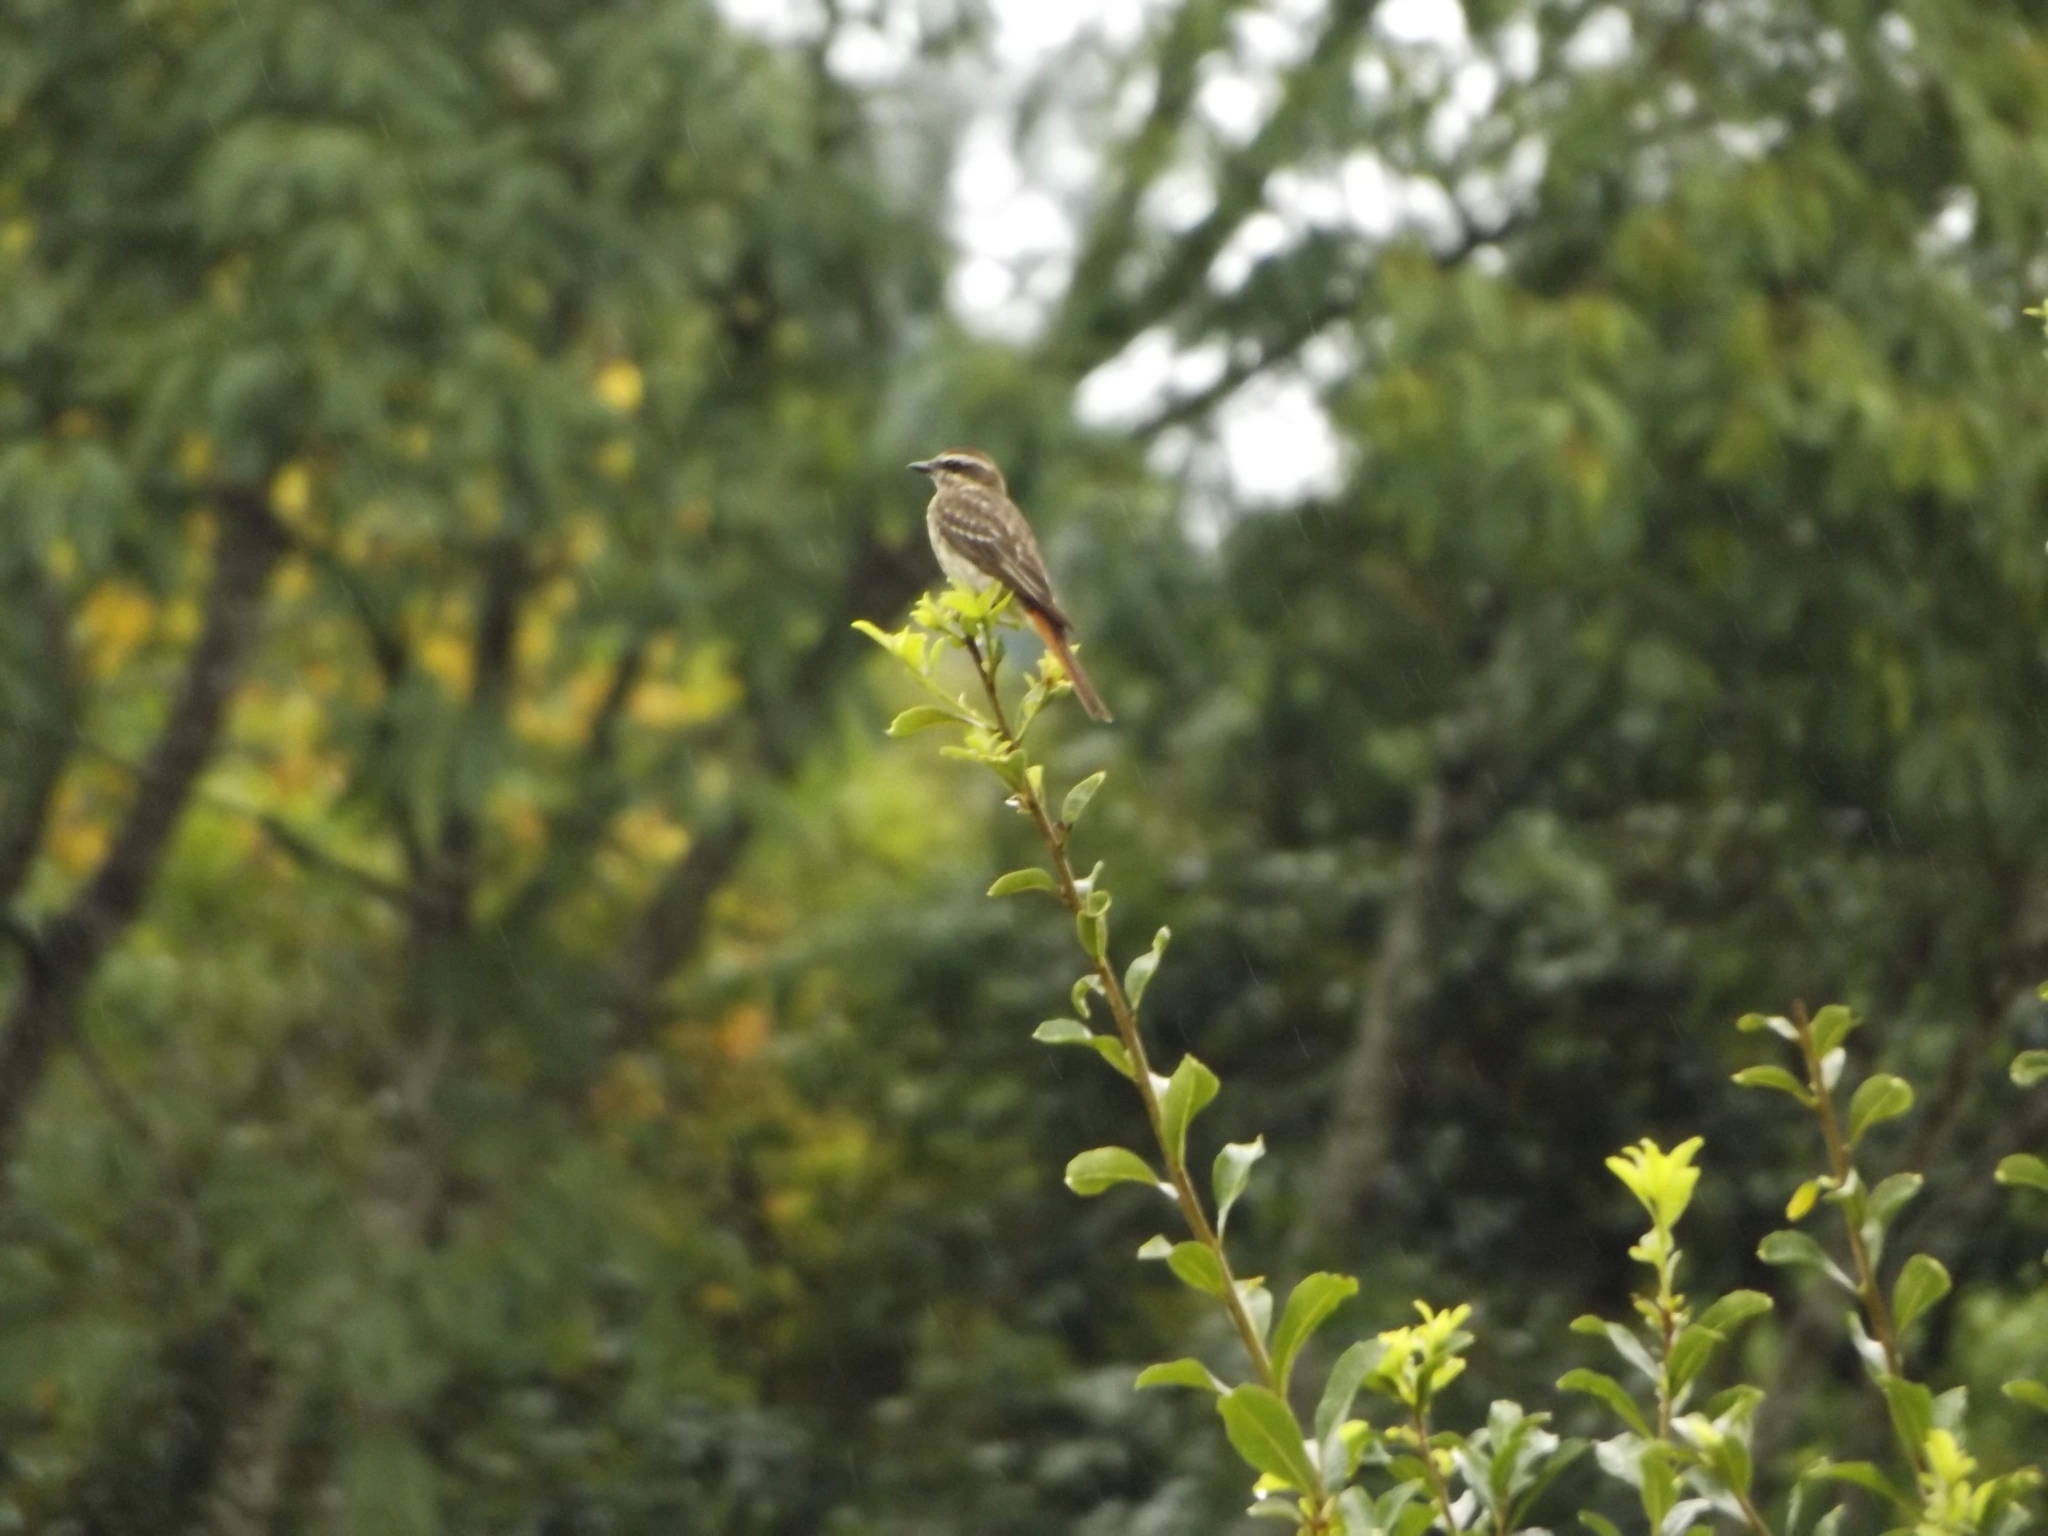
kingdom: Animalia
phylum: Chordata
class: Aves
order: Passeriformes
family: Tyrannidae
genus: Empidonomus
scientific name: Empidonomus varius
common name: Variegated flycatcher
